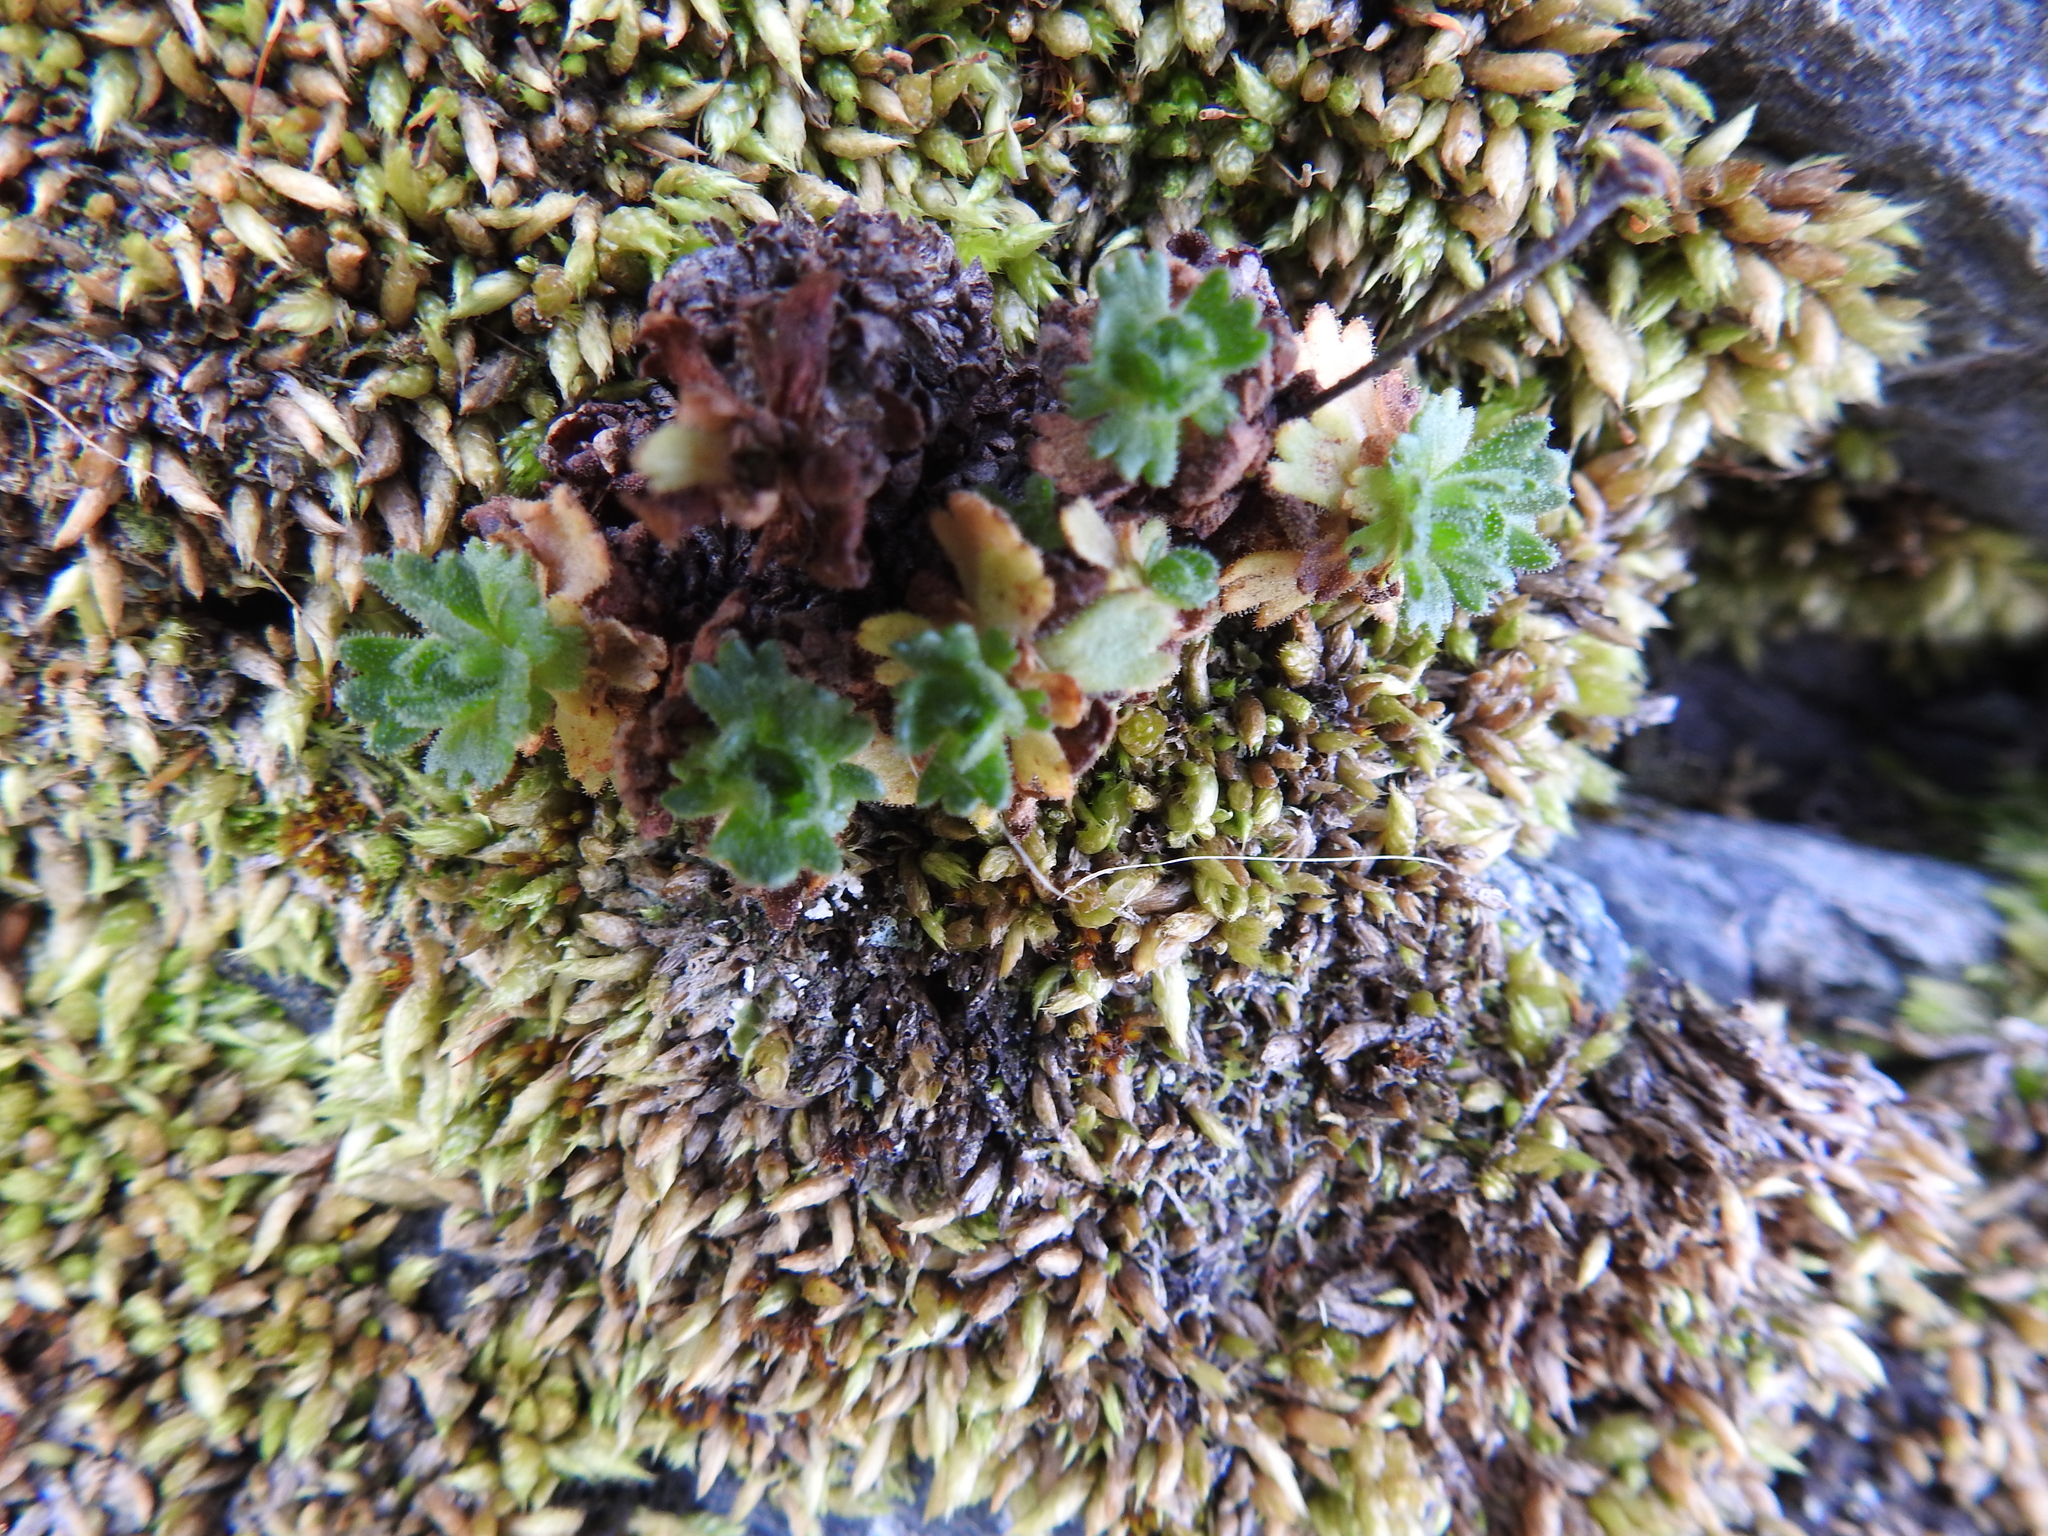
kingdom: Plantae
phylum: Tracheophyta
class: Magnoliopsida
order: Saxifragales
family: Saxifragaceae
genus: Saxifraga
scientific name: Saxifraga magellanica
